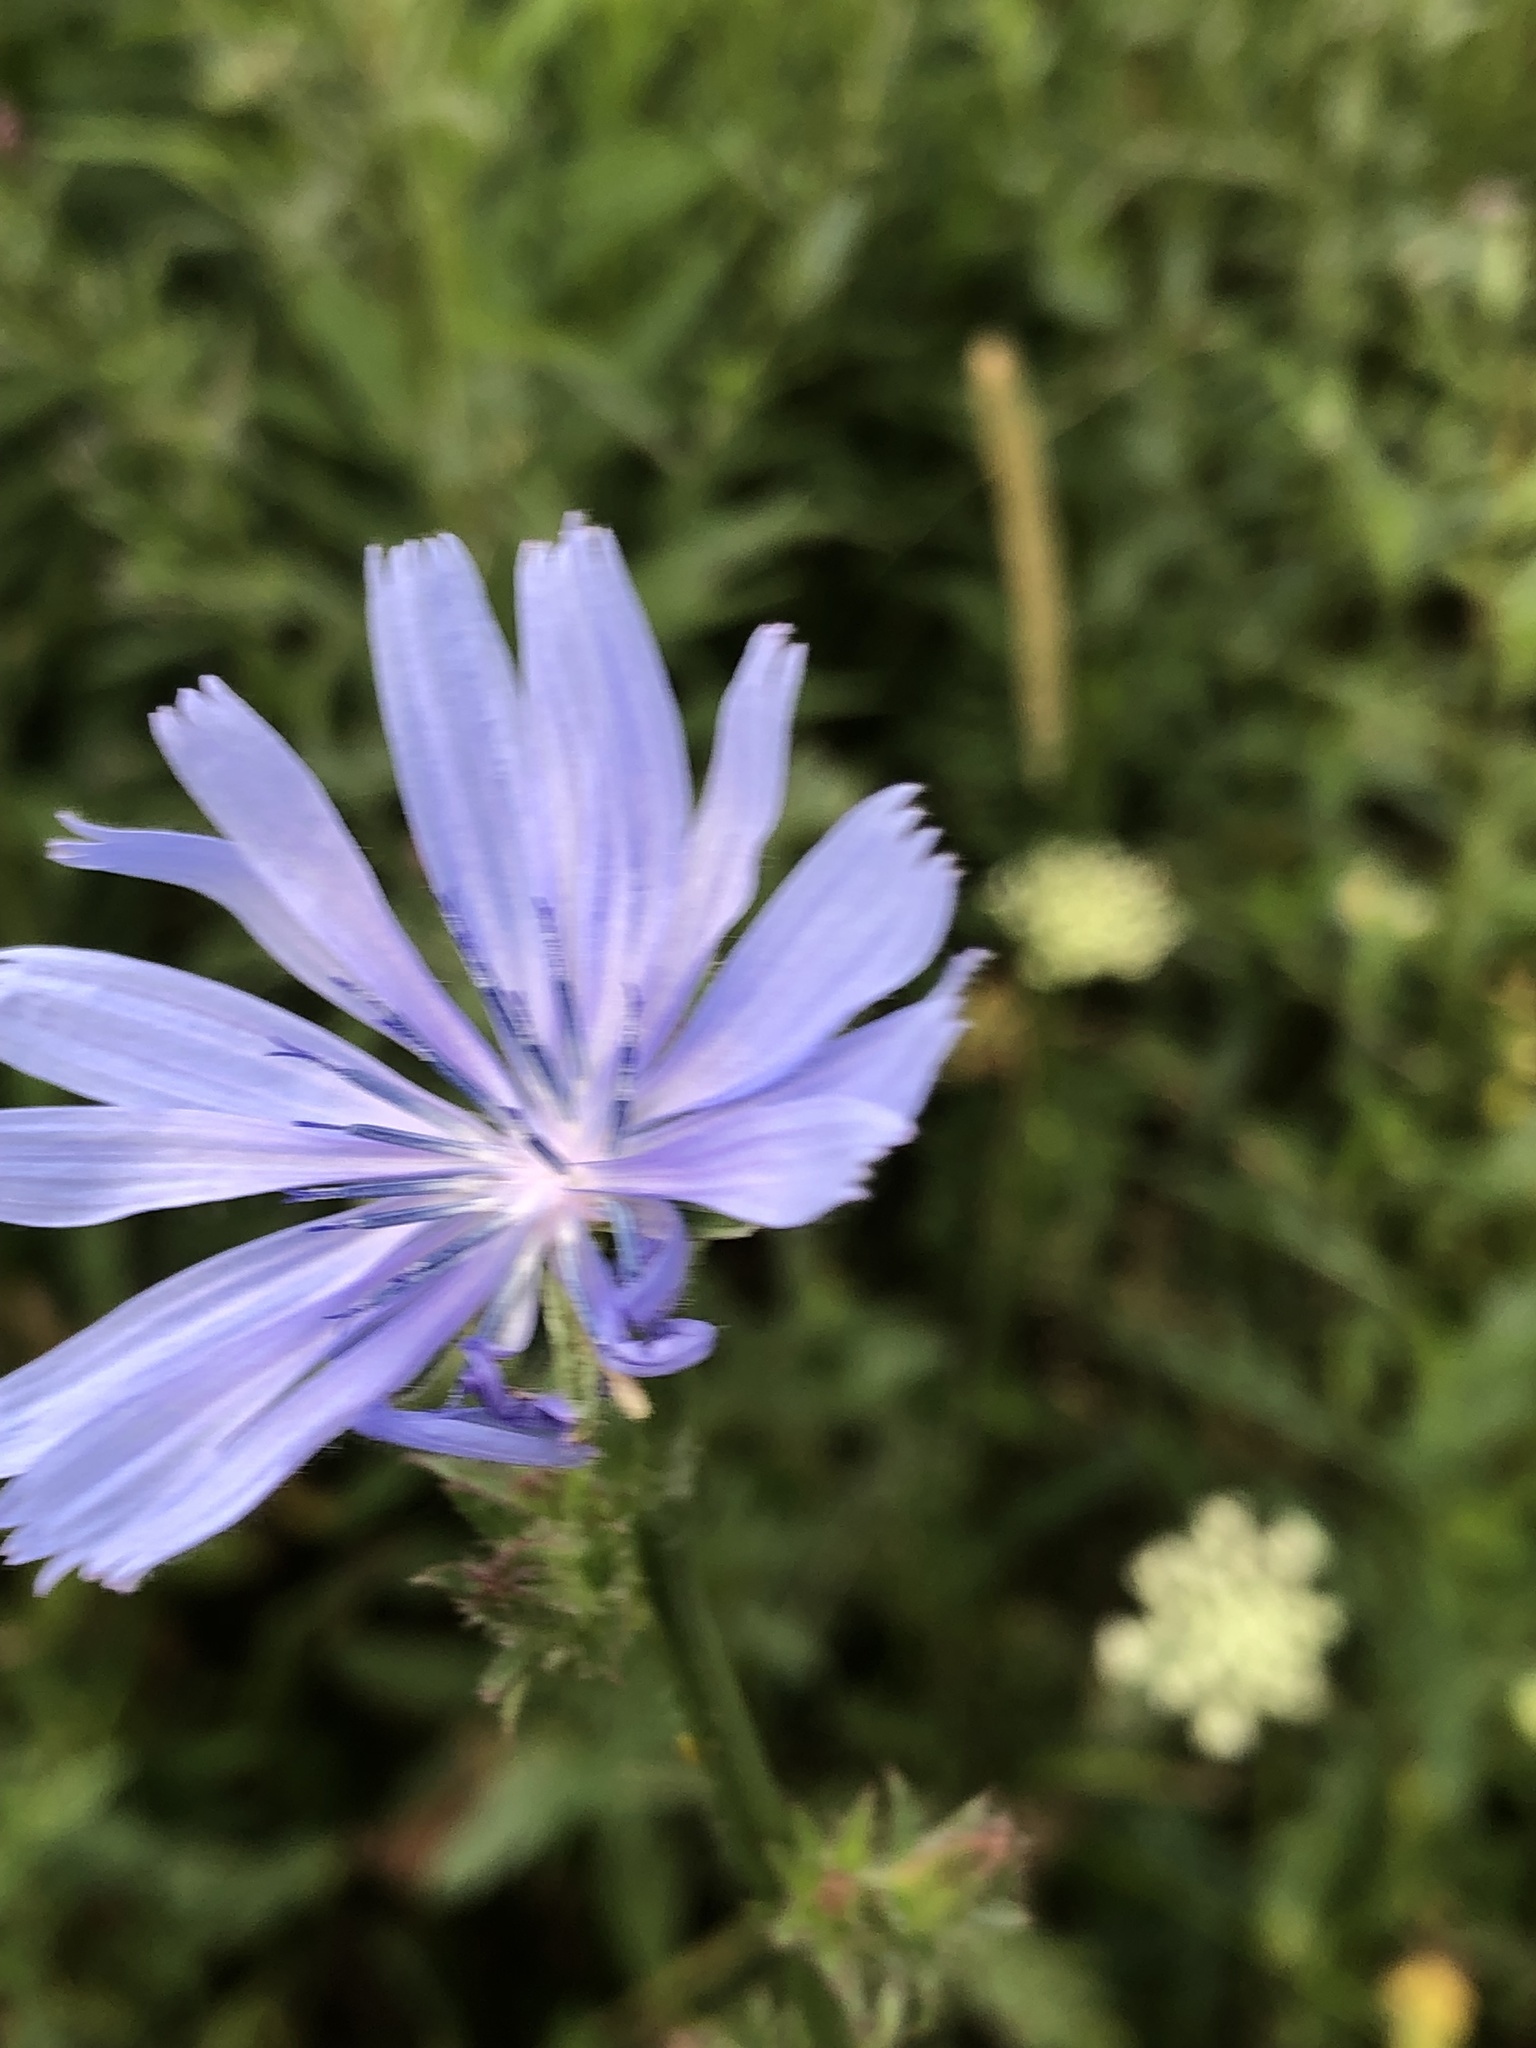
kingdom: Plantae
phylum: Tracheophyta
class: Magnoliopsida
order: Asterales
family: Asteraceae
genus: Cichorium
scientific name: Cichorium intybus
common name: Chicory
